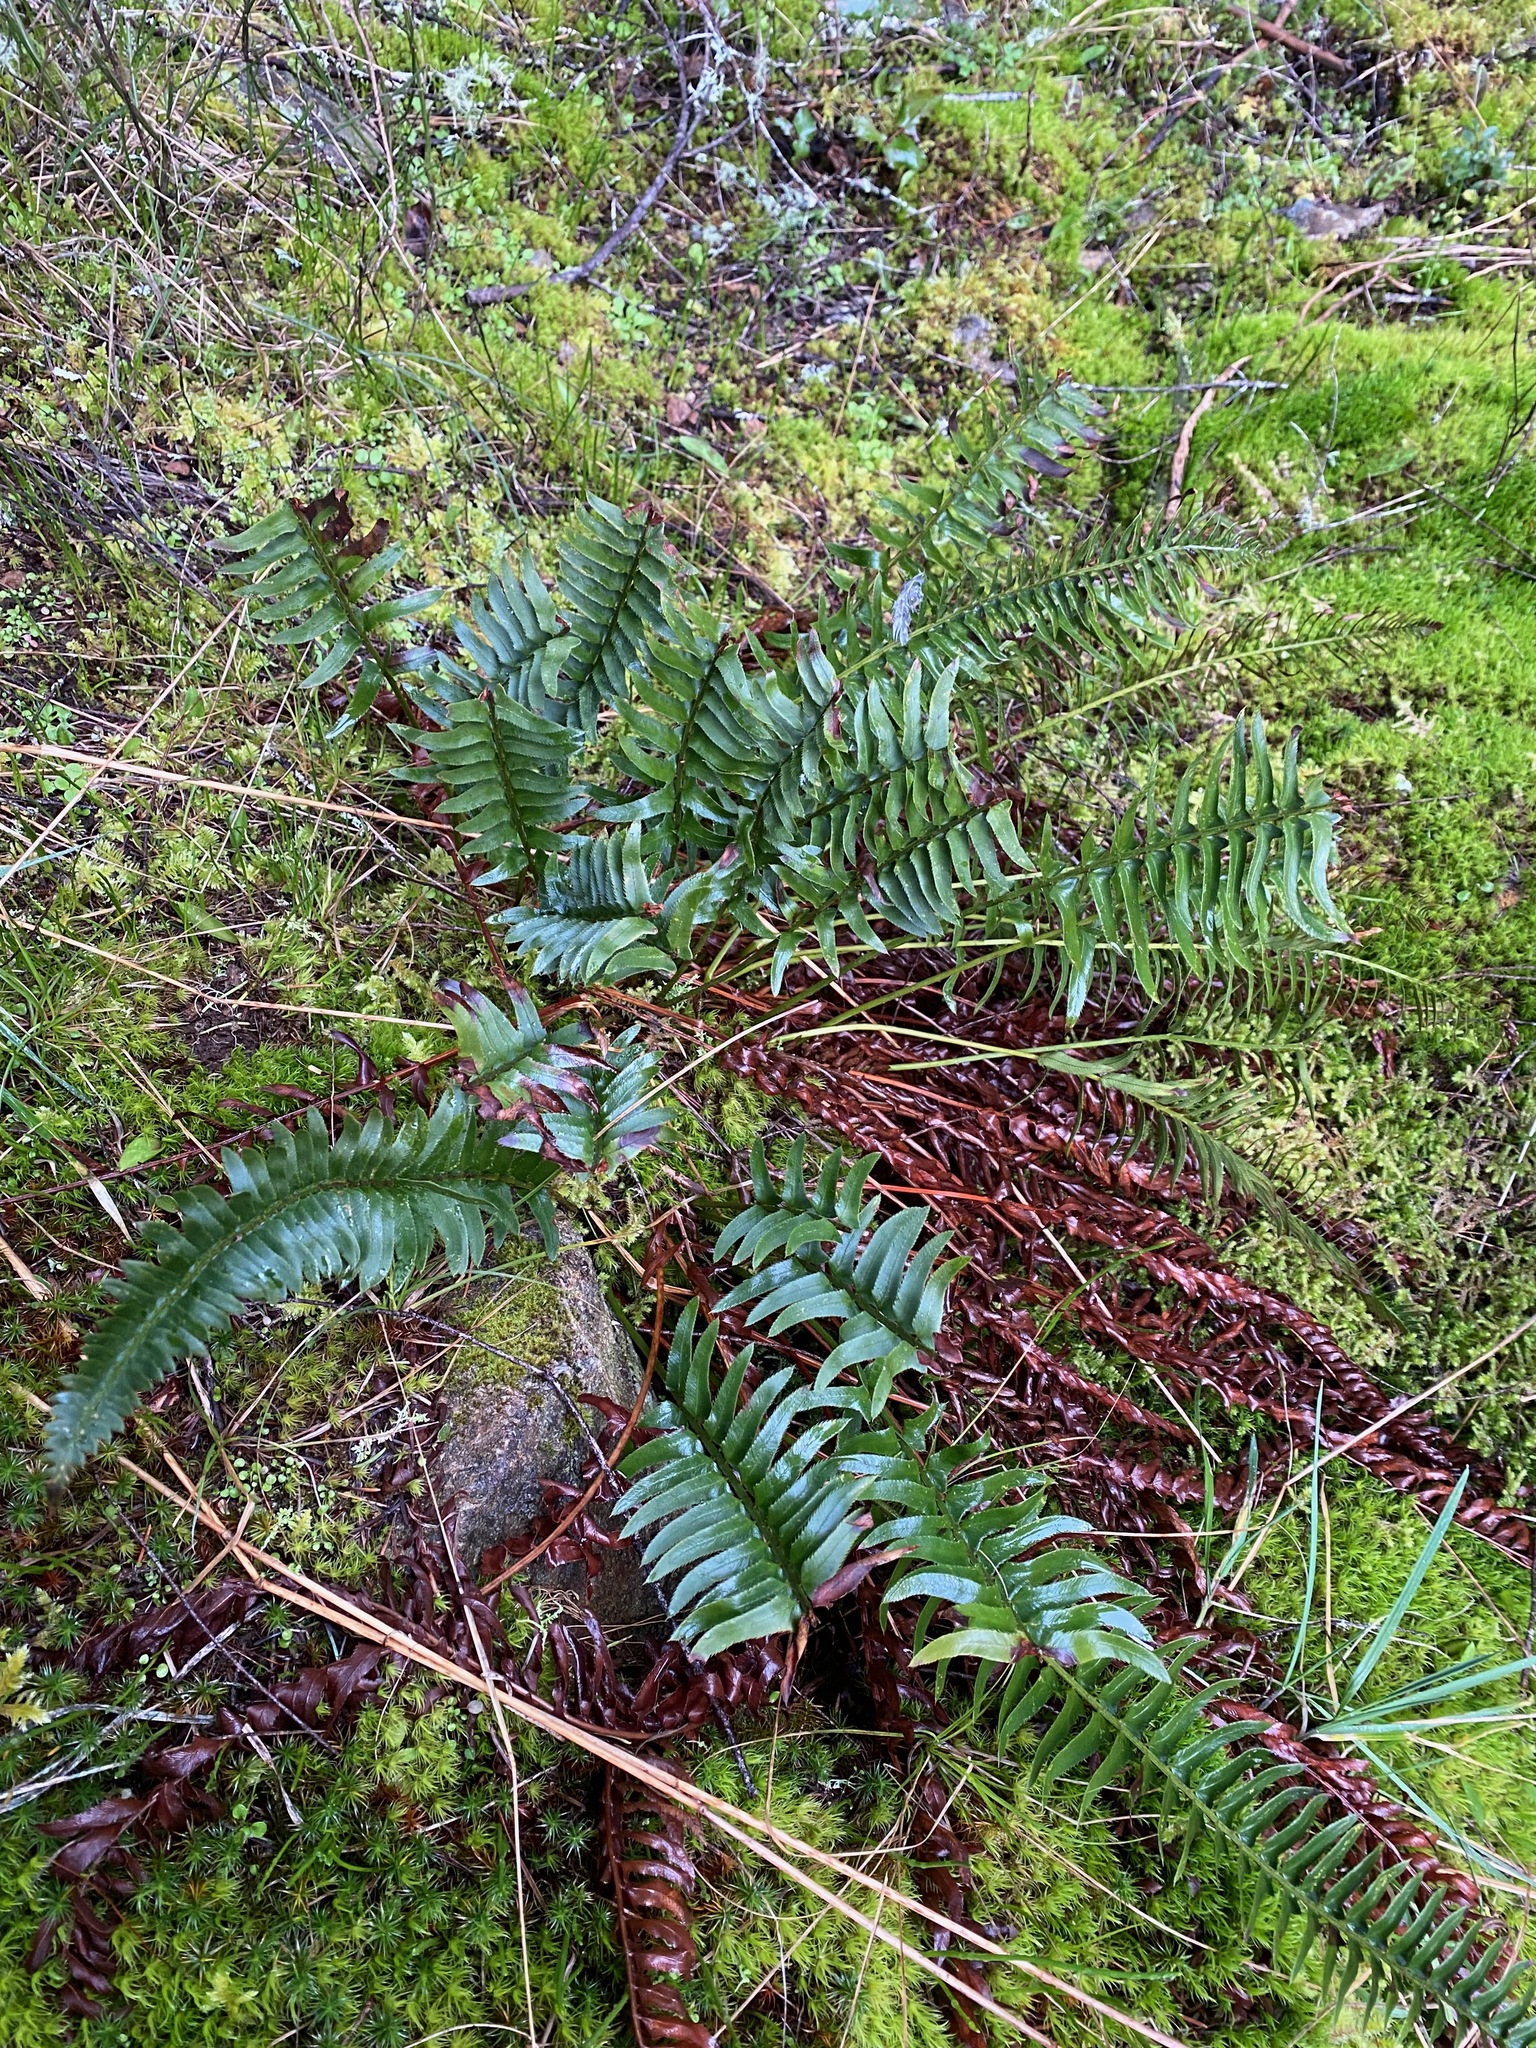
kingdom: Plantae
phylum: Tracheophyta
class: Polypodiopsida
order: Polypodiales
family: Dryopteridaceae
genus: Polystichum
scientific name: Polystichum imbricans
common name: Dwarf western sword fern
